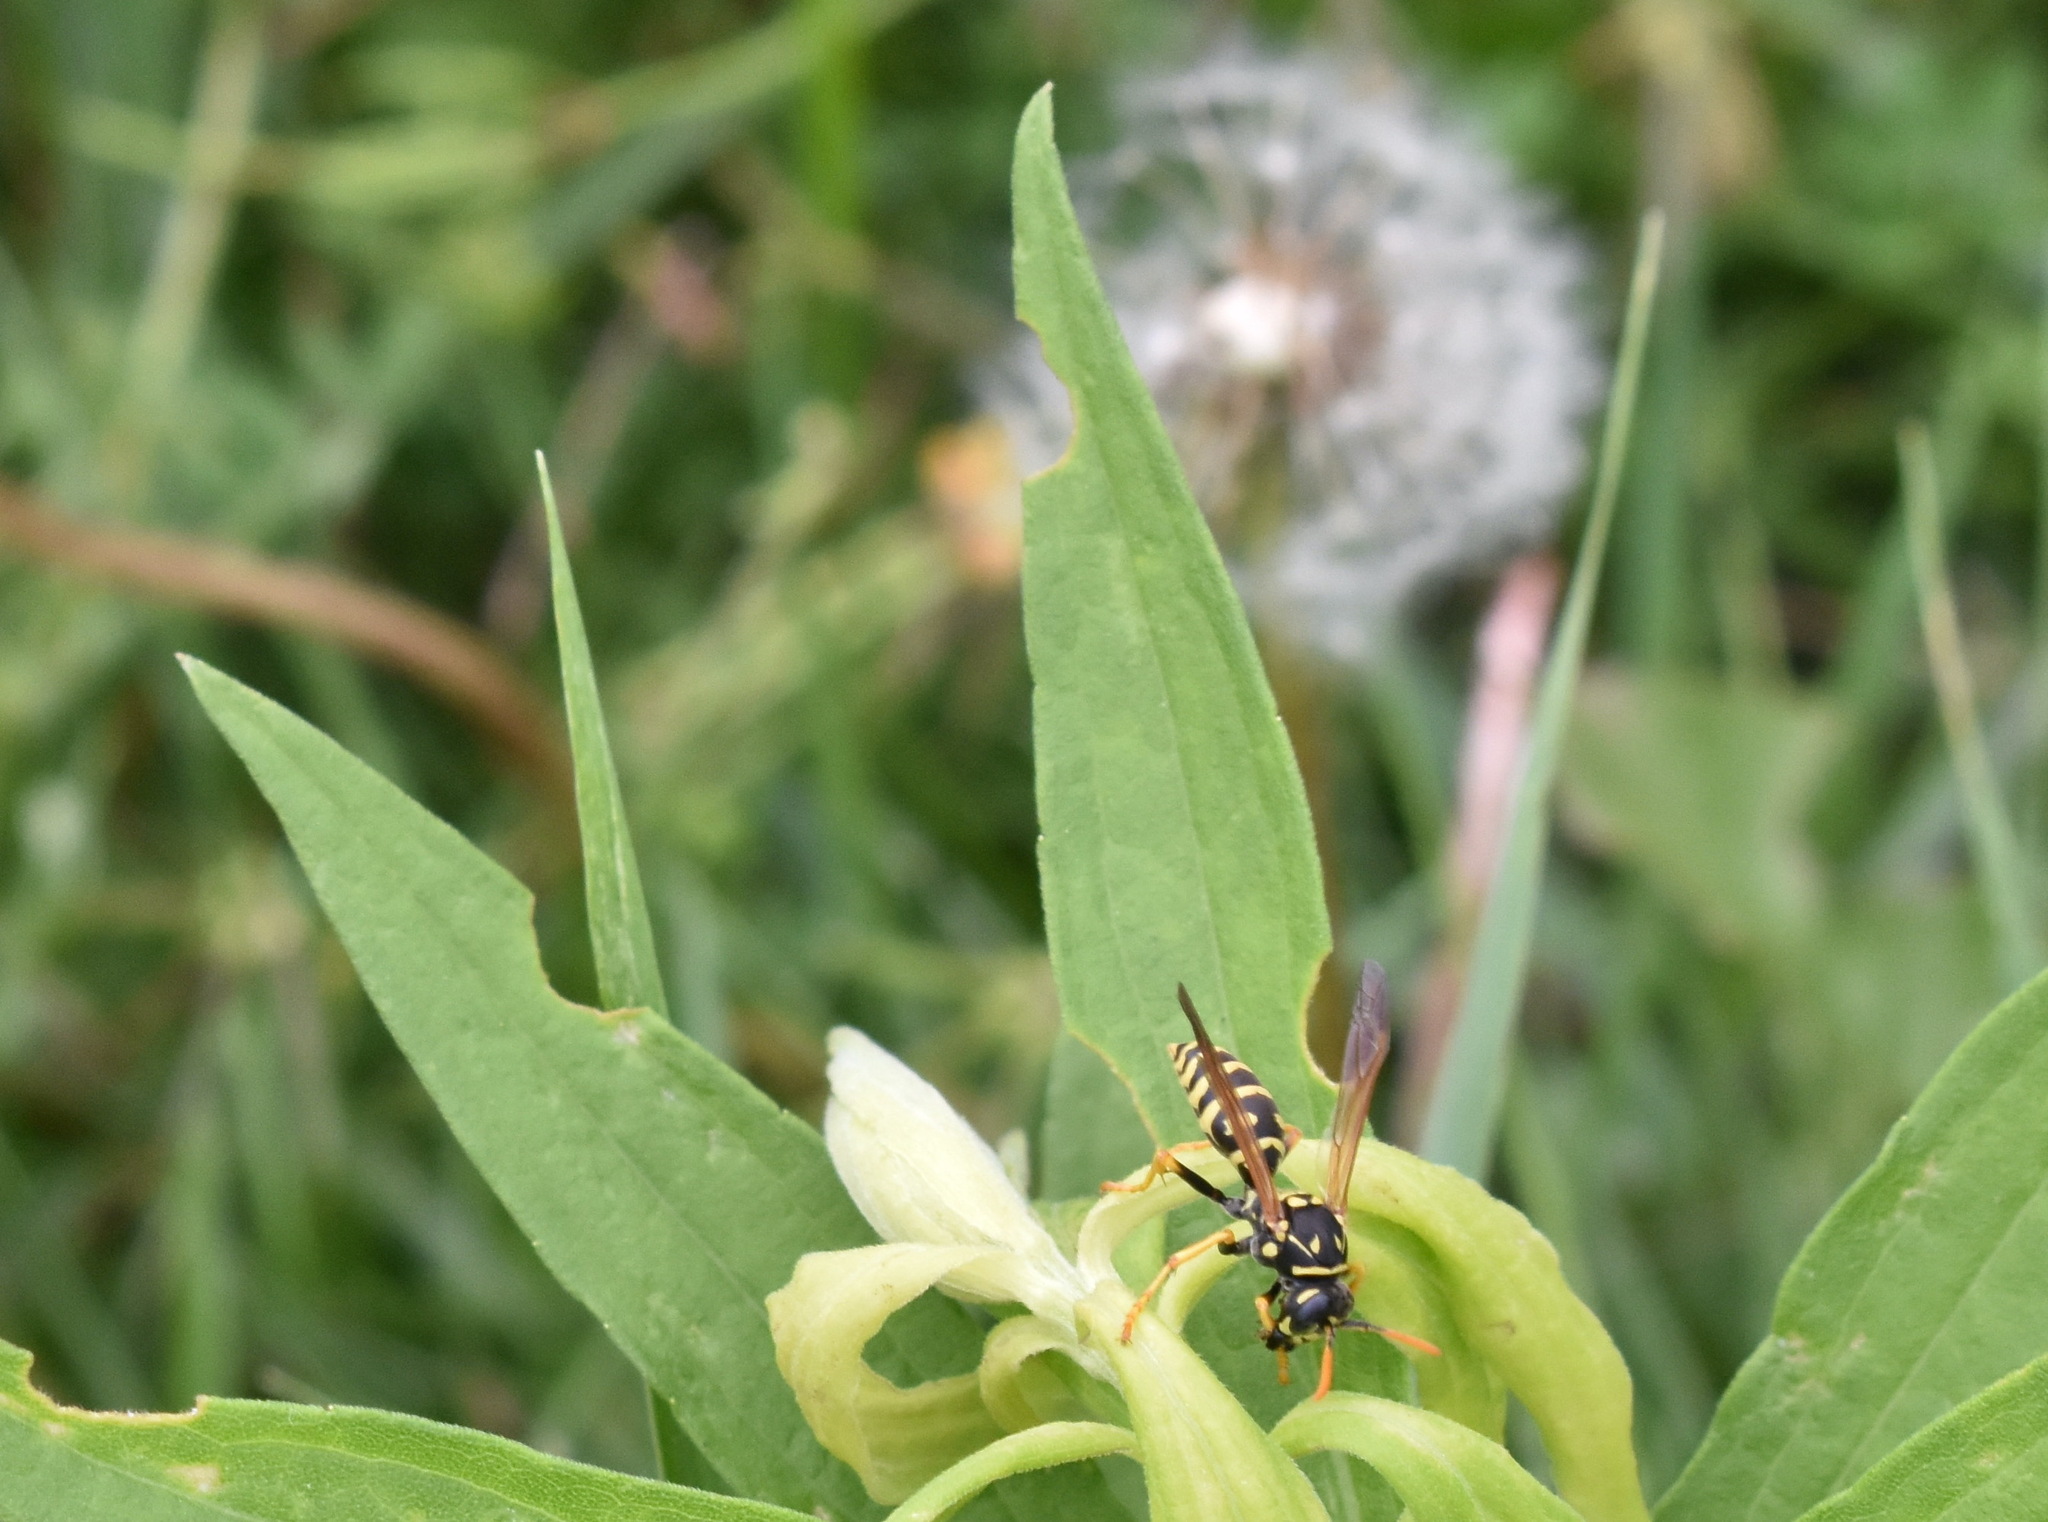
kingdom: Animalia
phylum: Arthropoda
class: Insecta
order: Hymenoptera
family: Eumenidae
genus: Polistes
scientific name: Polistes dominula
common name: Paper wasp
